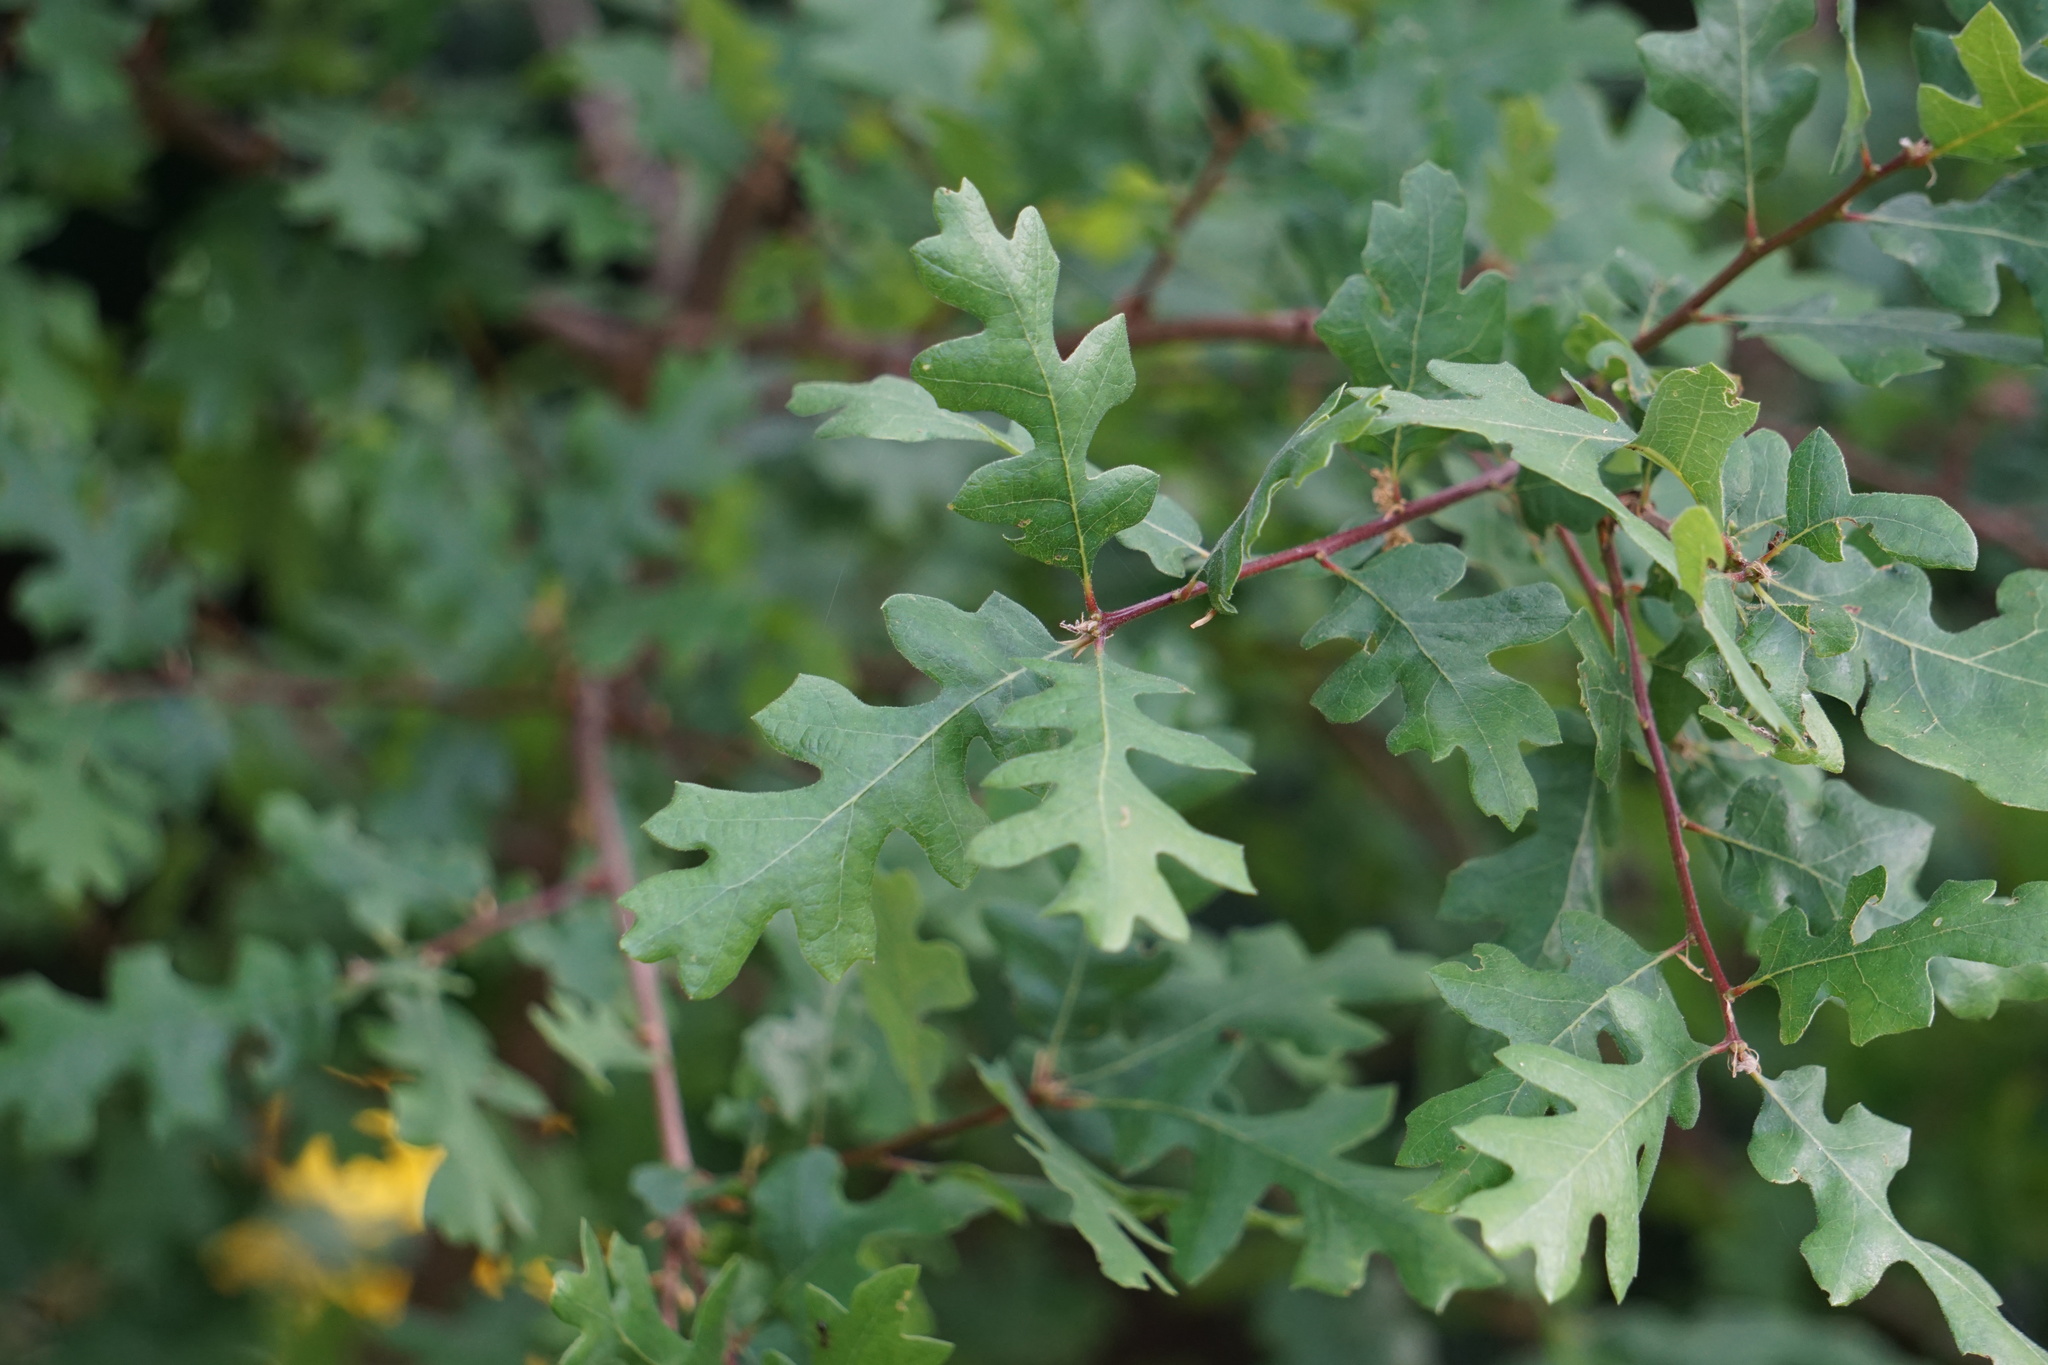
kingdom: Plantae
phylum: Tracheophyta
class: Magnoliopsida
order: Fagales
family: Fagaceae
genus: Quercus
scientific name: Quercus lobata
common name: Valley oak
